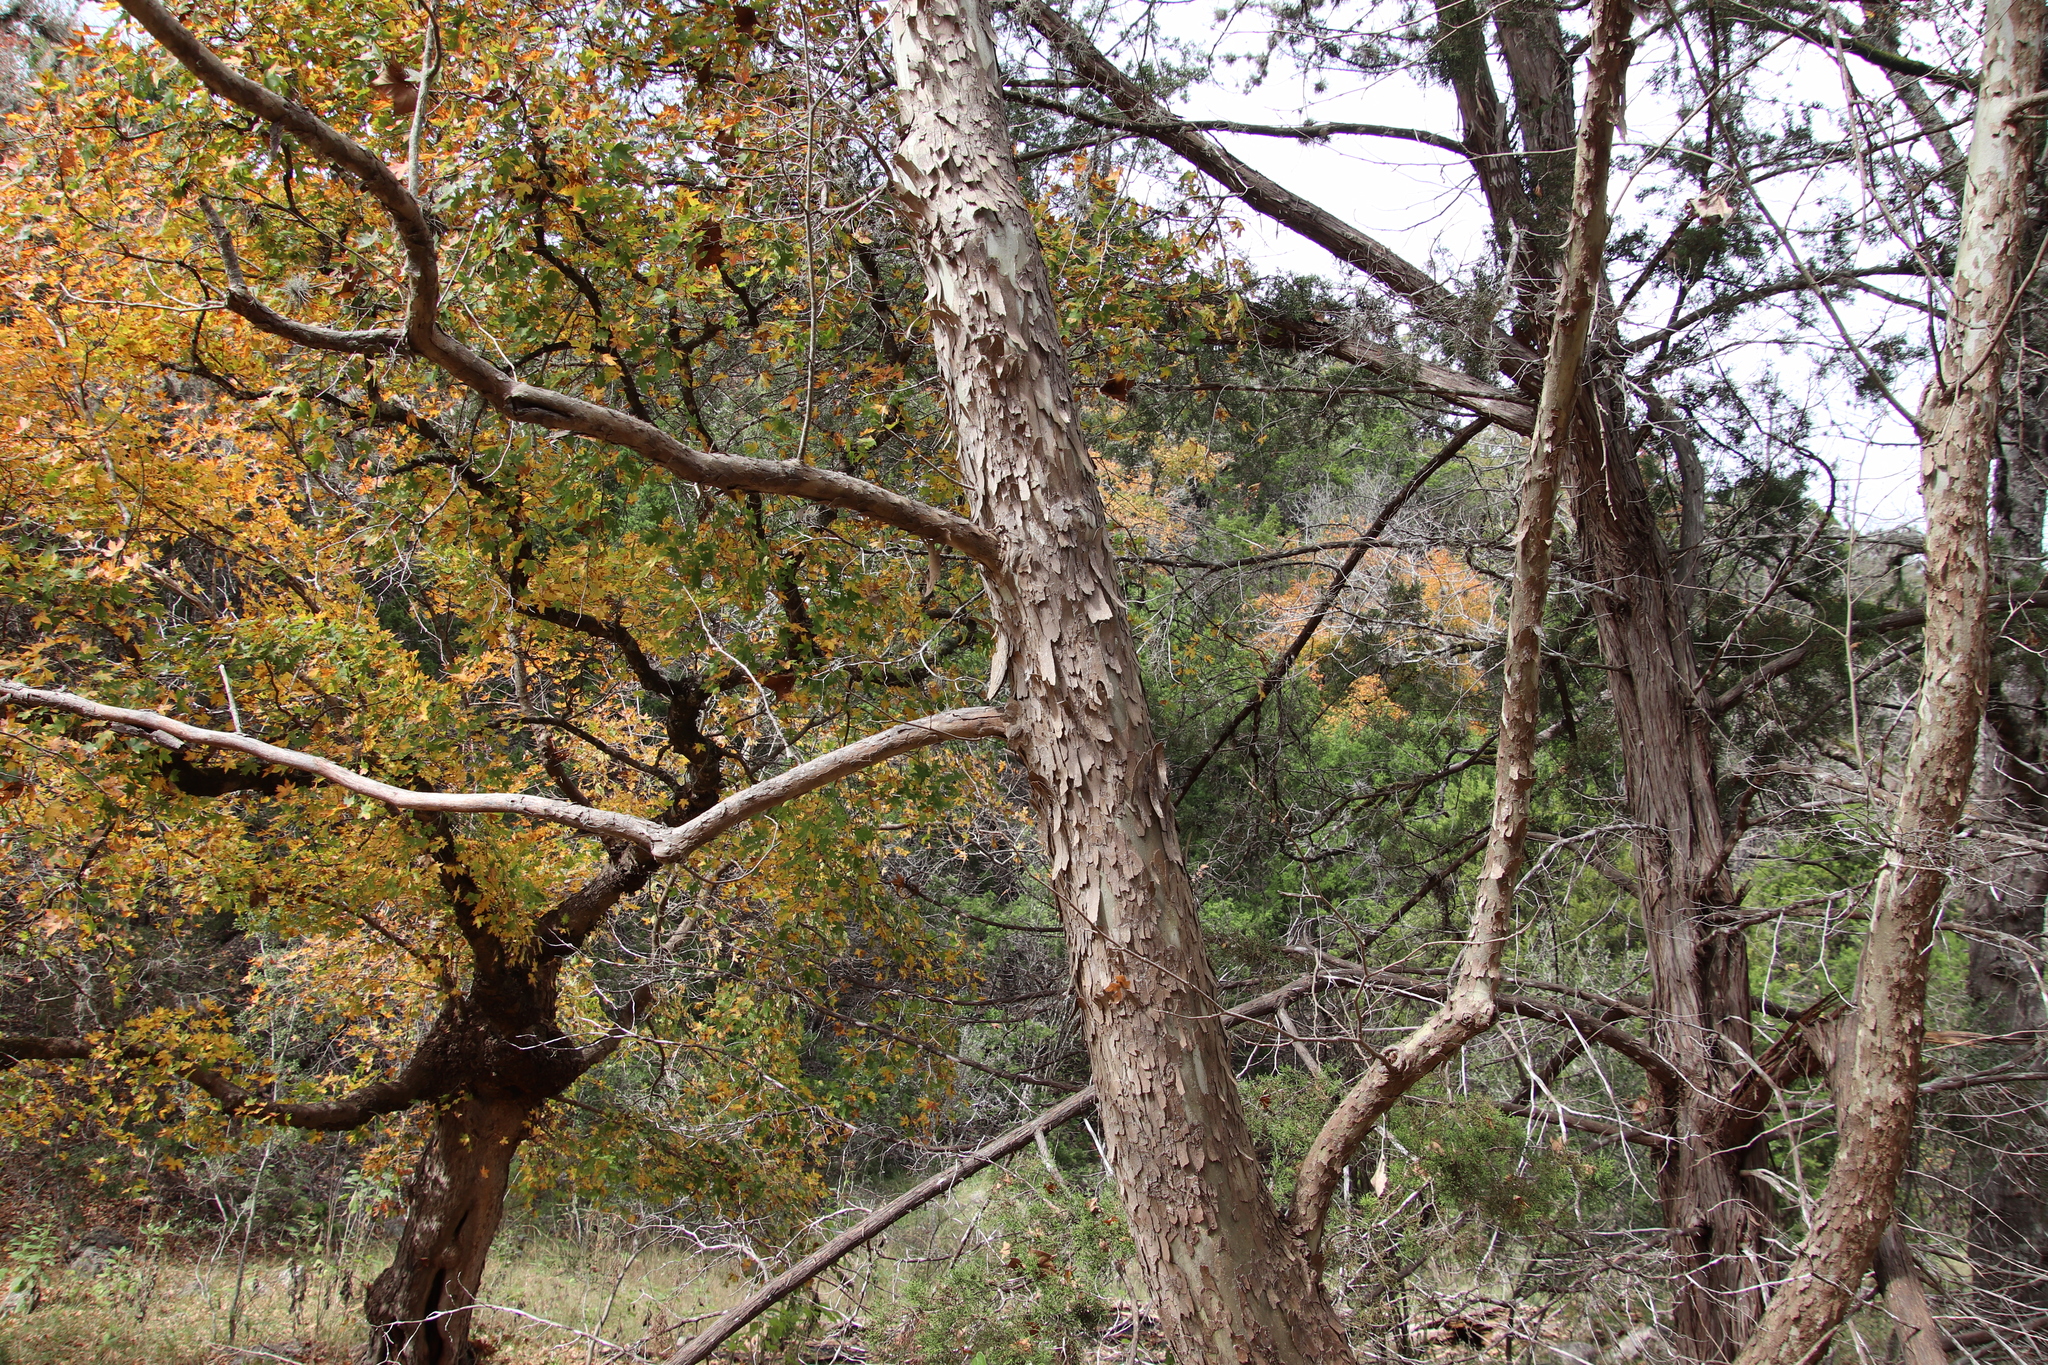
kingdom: Plantae
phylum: Tracheophyta
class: Magnoliopsida
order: Proteales
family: Platanaceae
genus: Platanus
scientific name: Platanus occidentalis
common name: American sycamore
